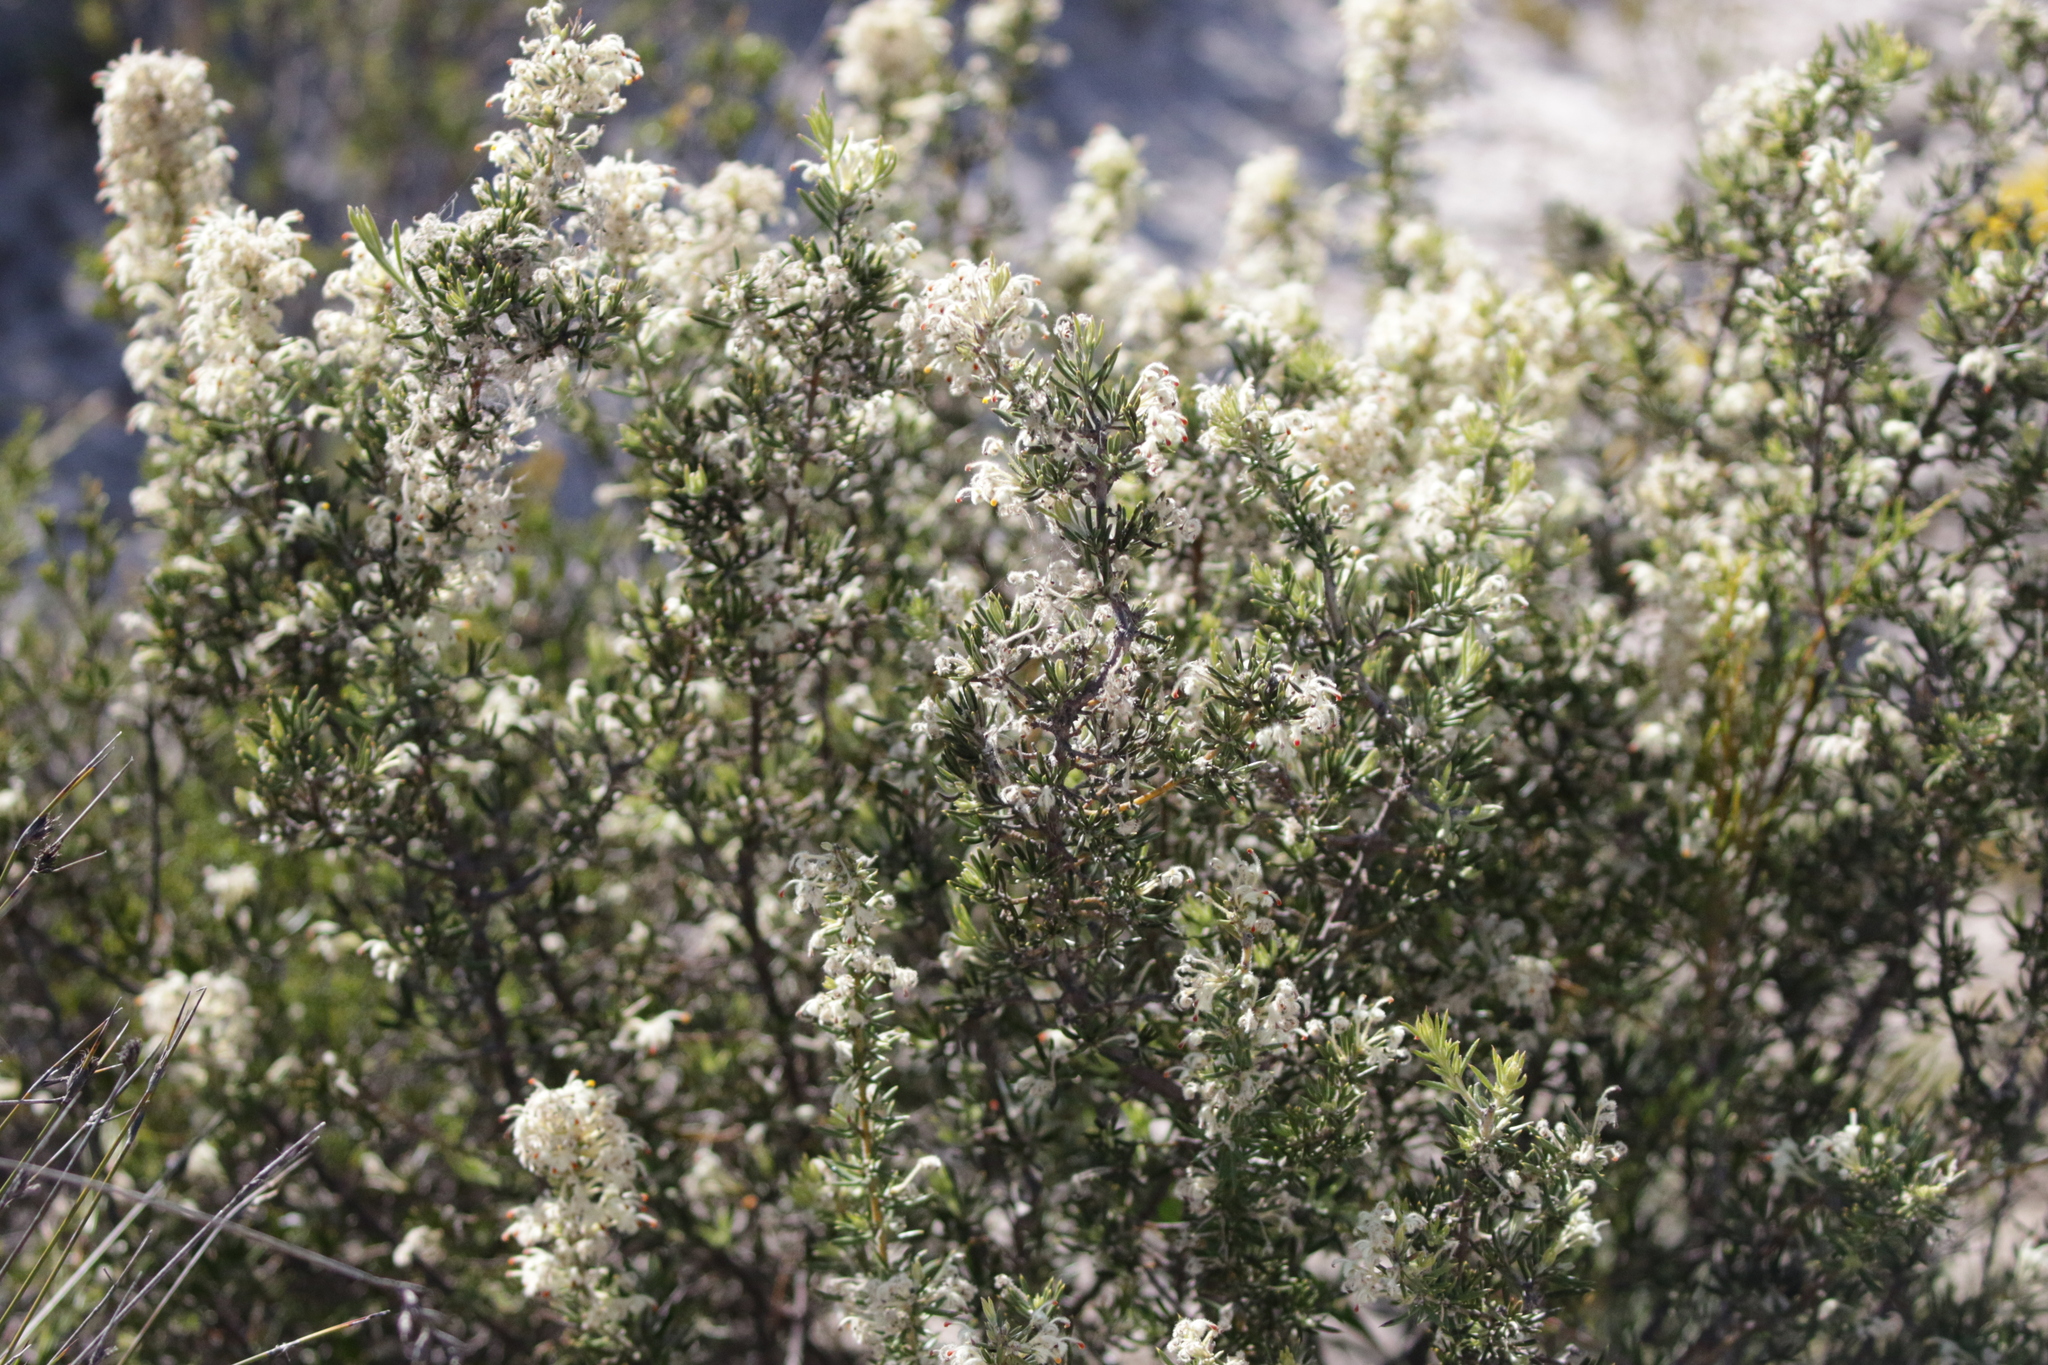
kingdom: Plantae
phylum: Tracheophyta
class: Magnoliopsida
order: Proteales
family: Proteaceae
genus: Grevillea
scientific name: Grevillea uncinulata
